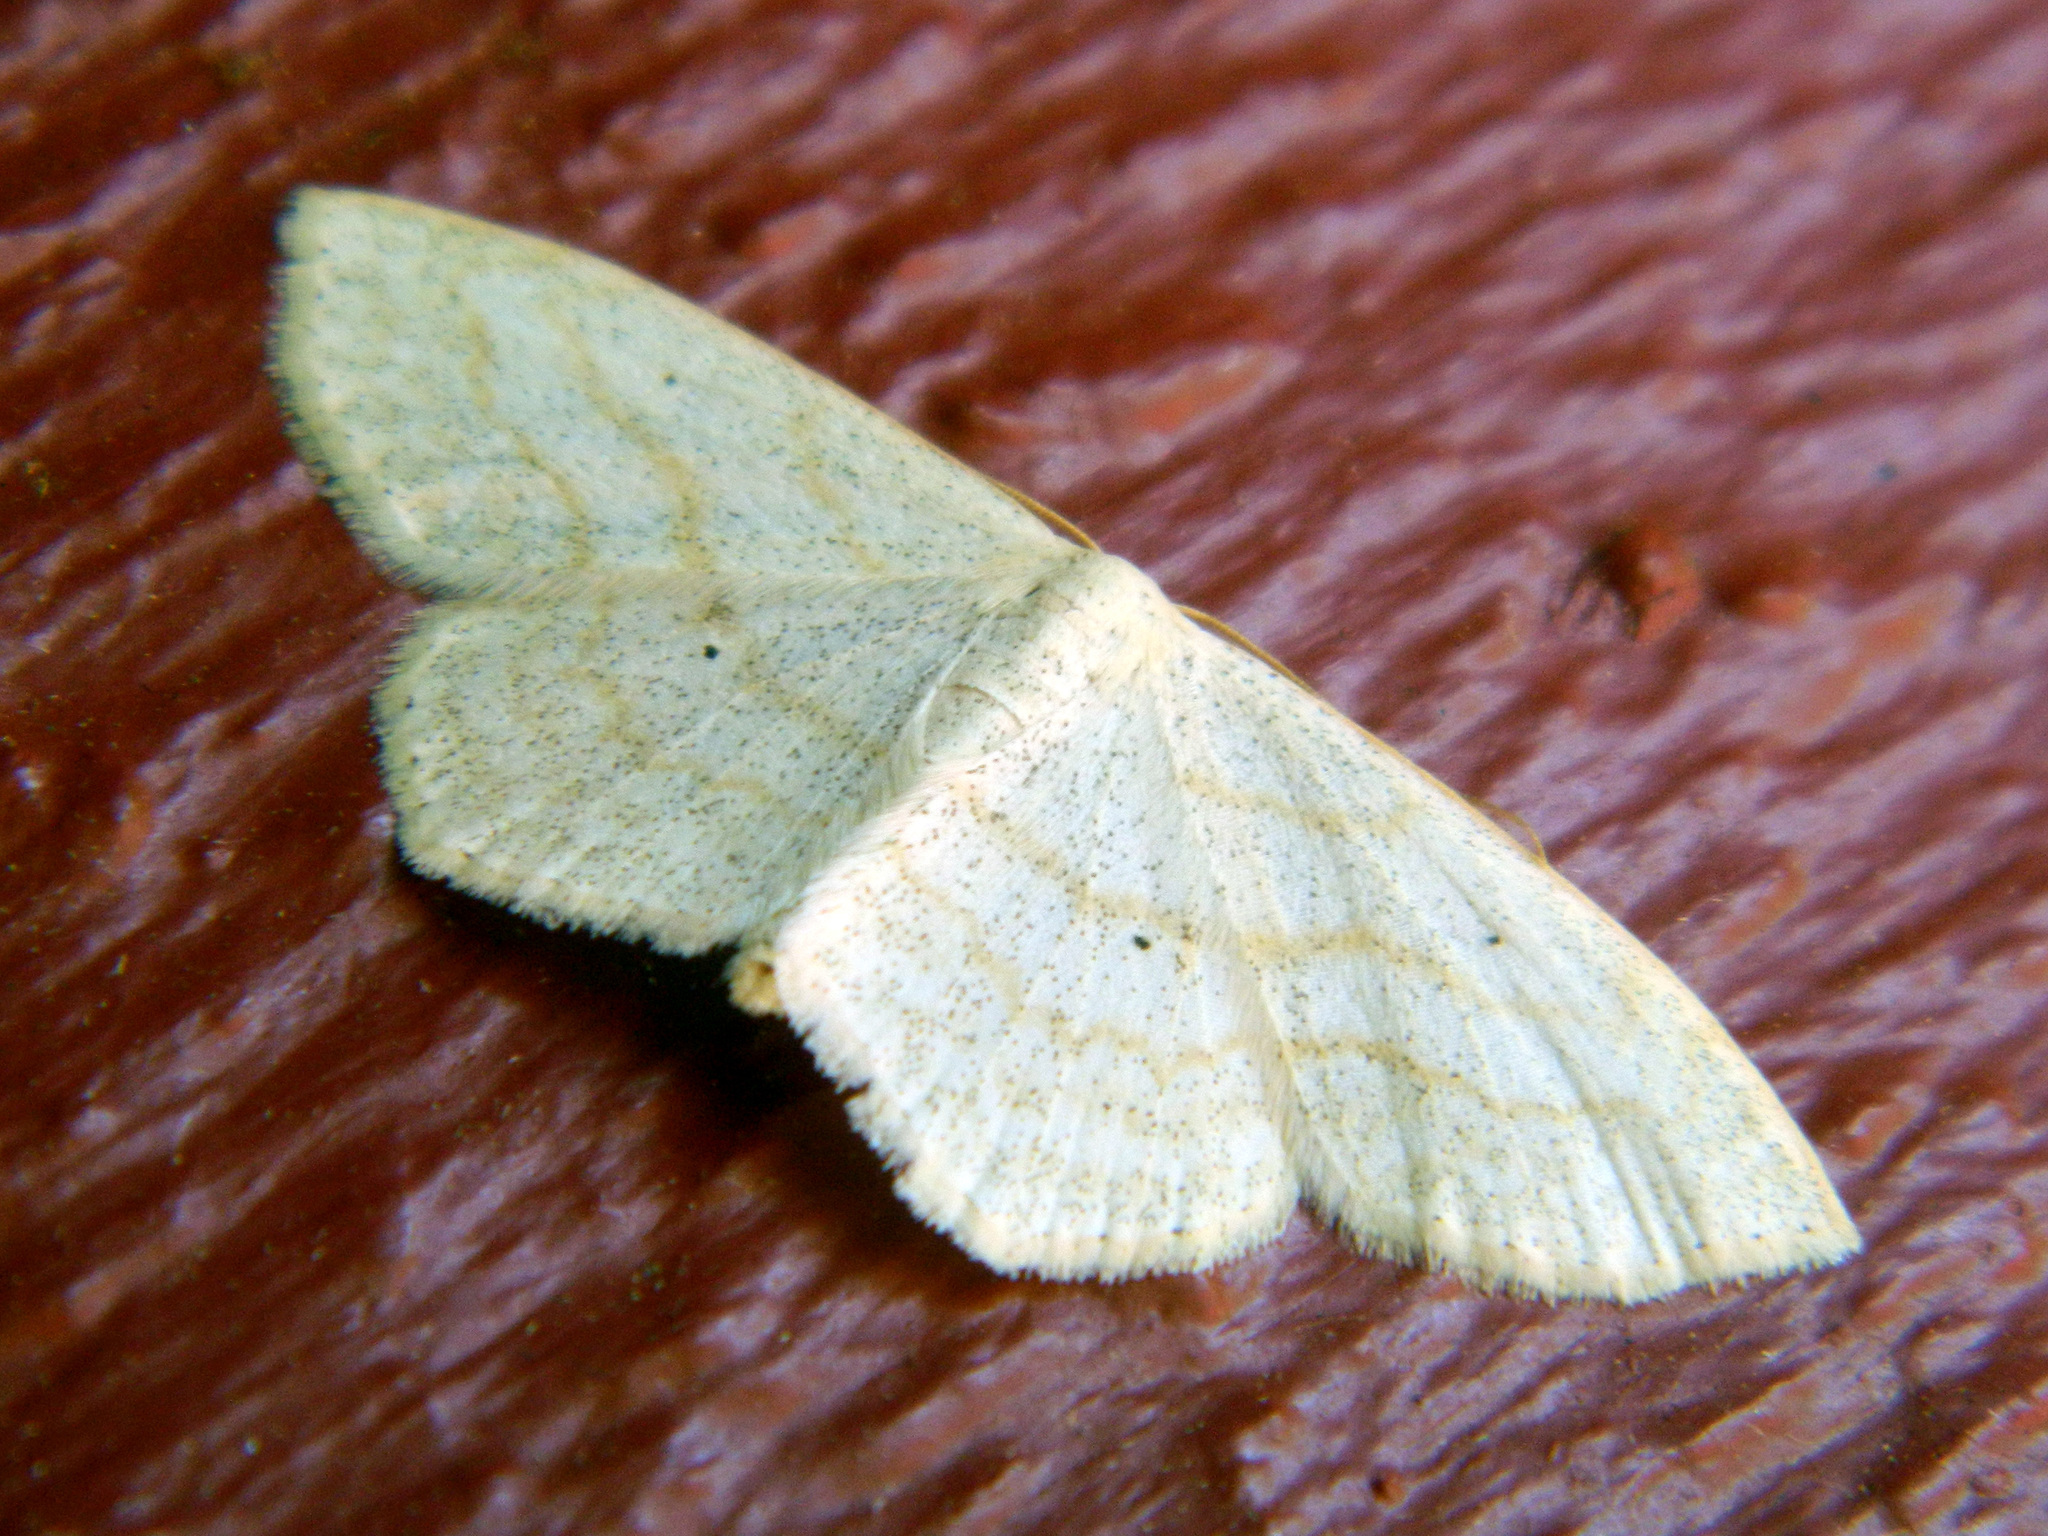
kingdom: Animalia
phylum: Arthropoda
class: Insecta
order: Lepidoptera
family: Geometridae
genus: Scopula
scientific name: Scopula limboundata
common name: Large lace border
